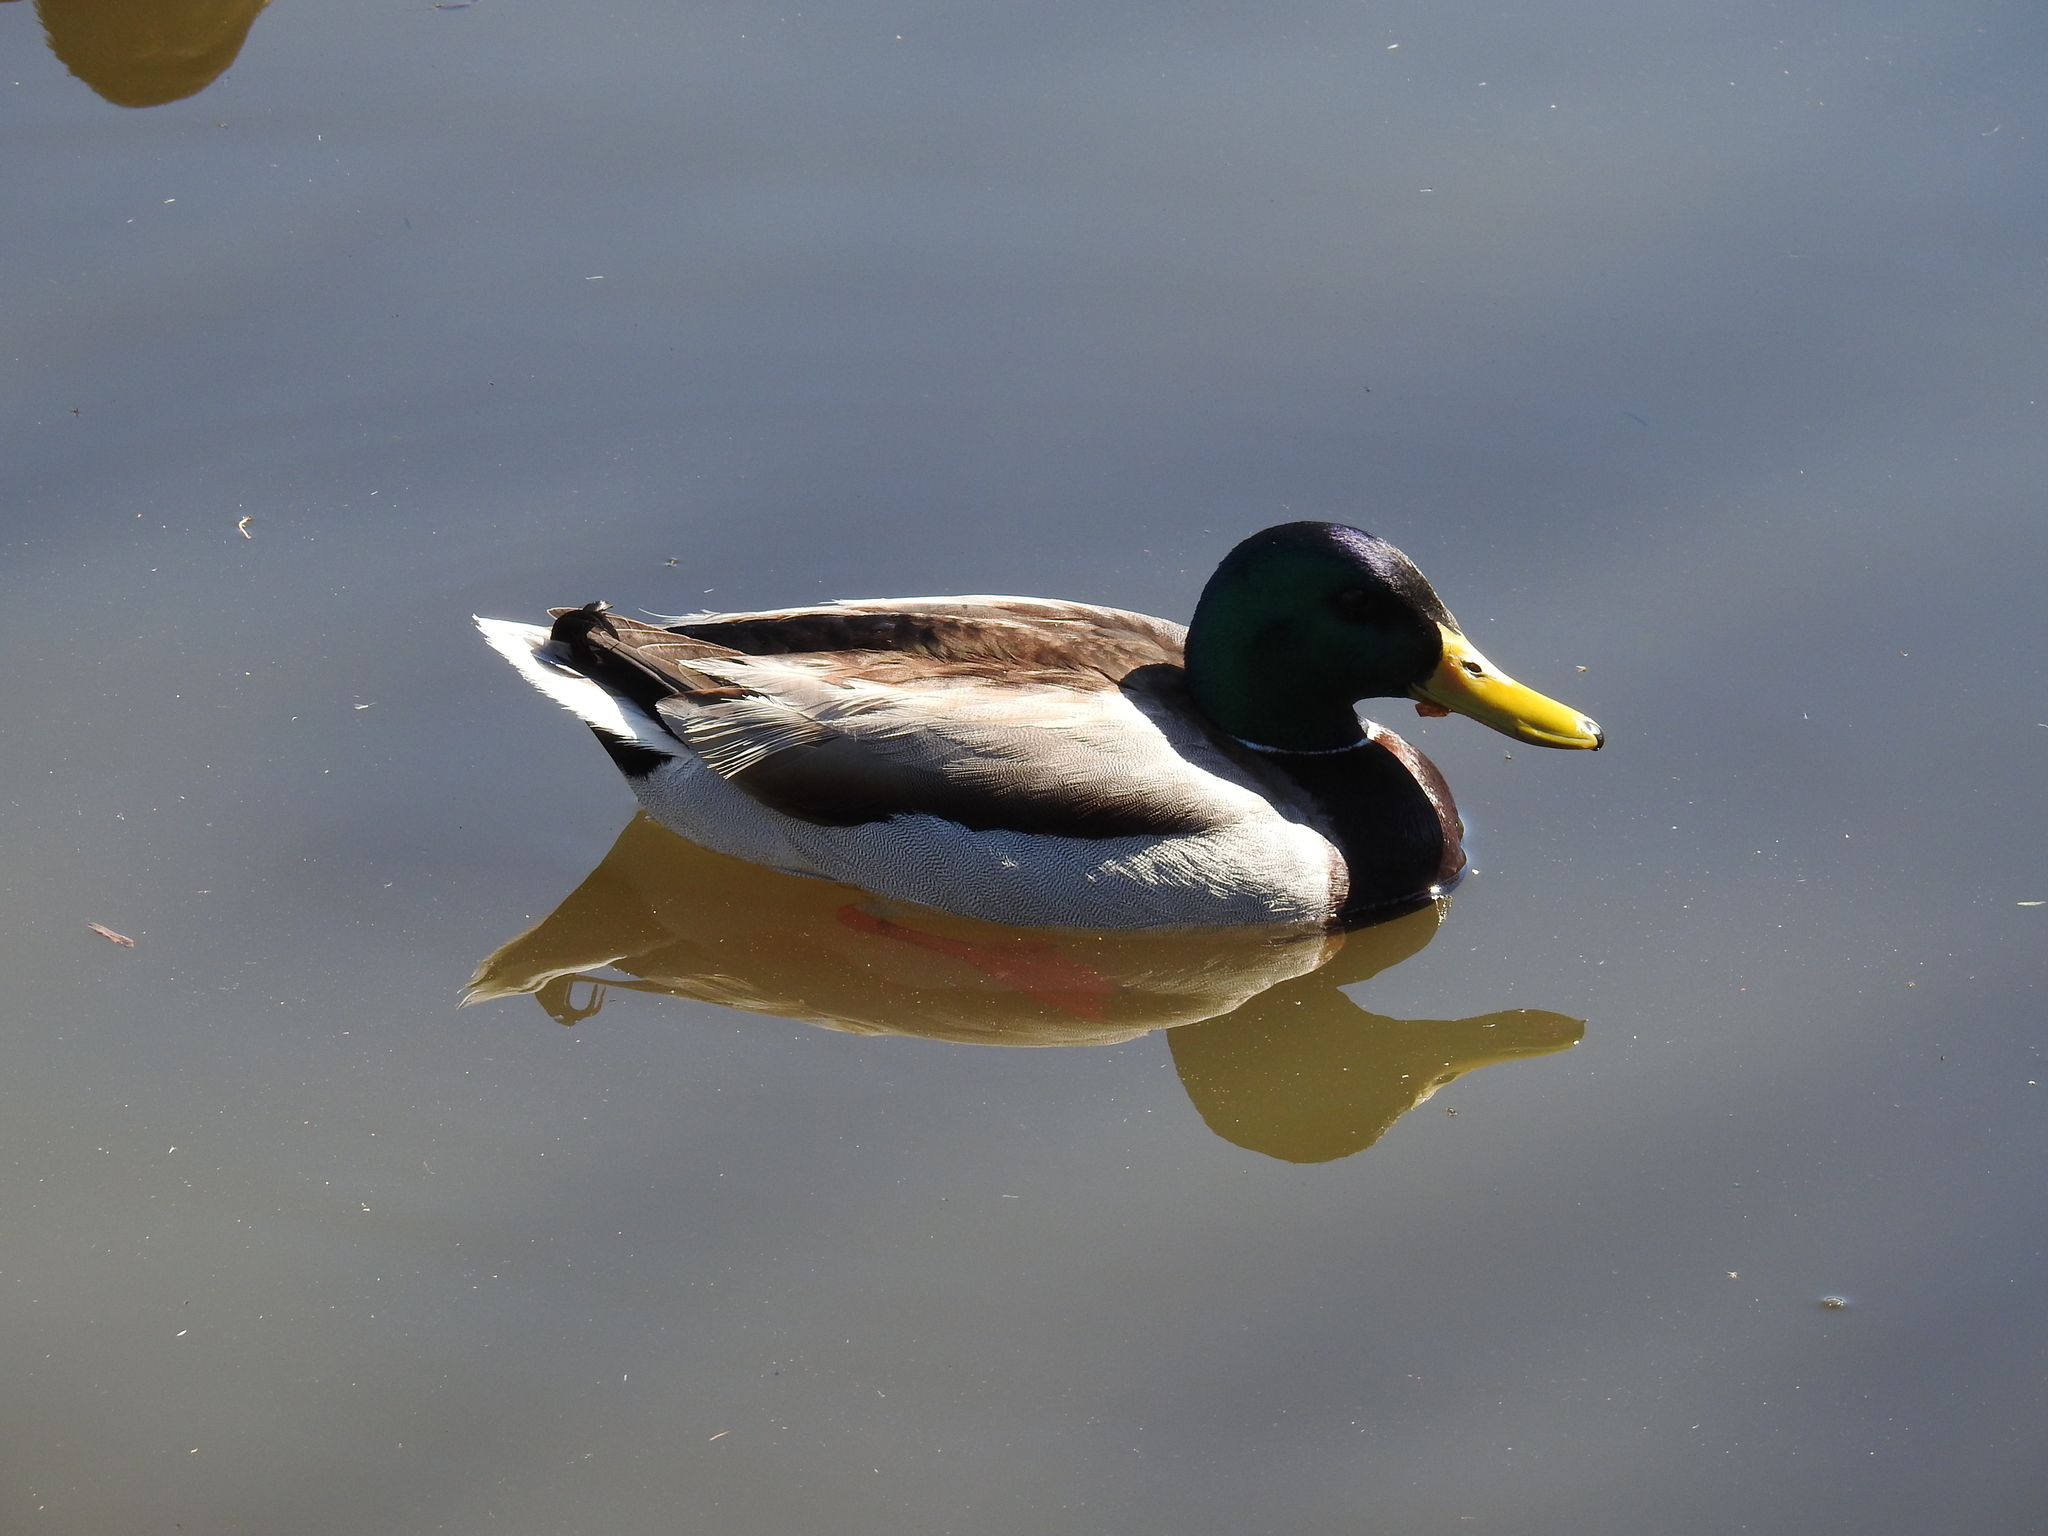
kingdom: Animalia
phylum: Chordata
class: Aves
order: Anseriformes
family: Anatidae
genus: Anas
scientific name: Anas platyrhynchos
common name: Mallard
